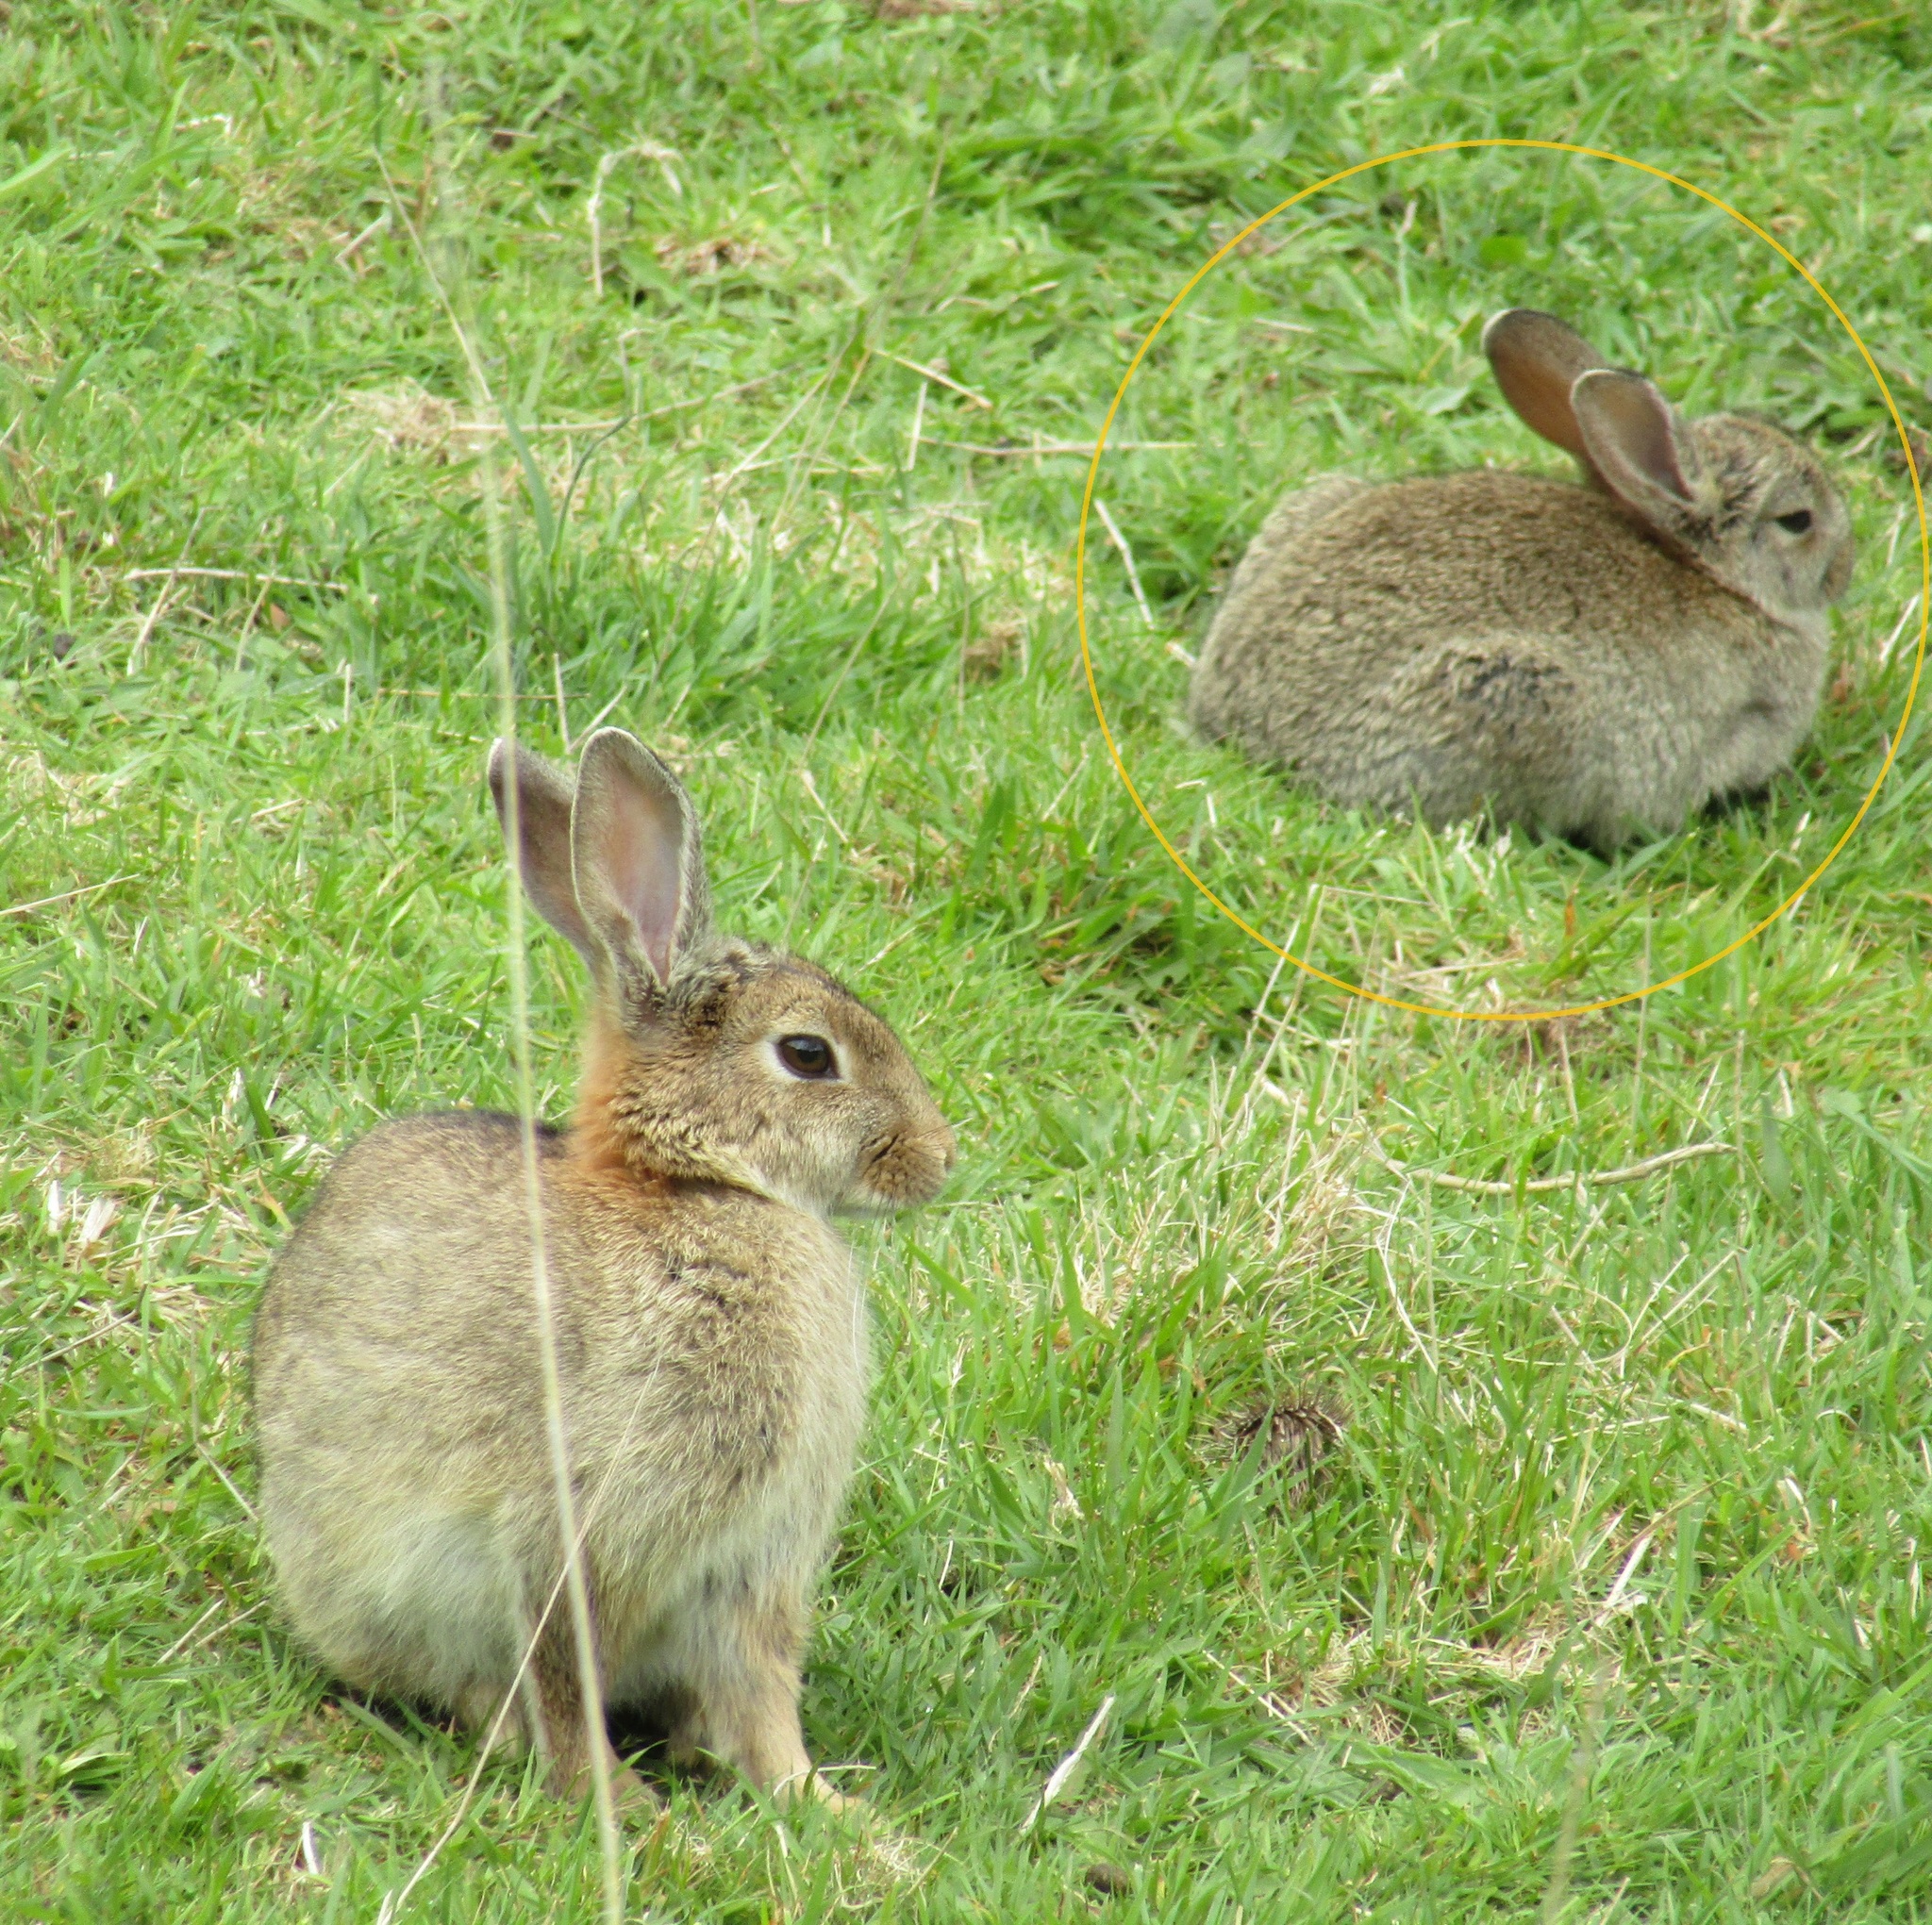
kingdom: Animalia
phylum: Chordata
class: Mammalia
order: Lagomorpha
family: Leporidae
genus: Oryctolagus
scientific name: Oryctolagus cuniculus
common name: European rabbit
